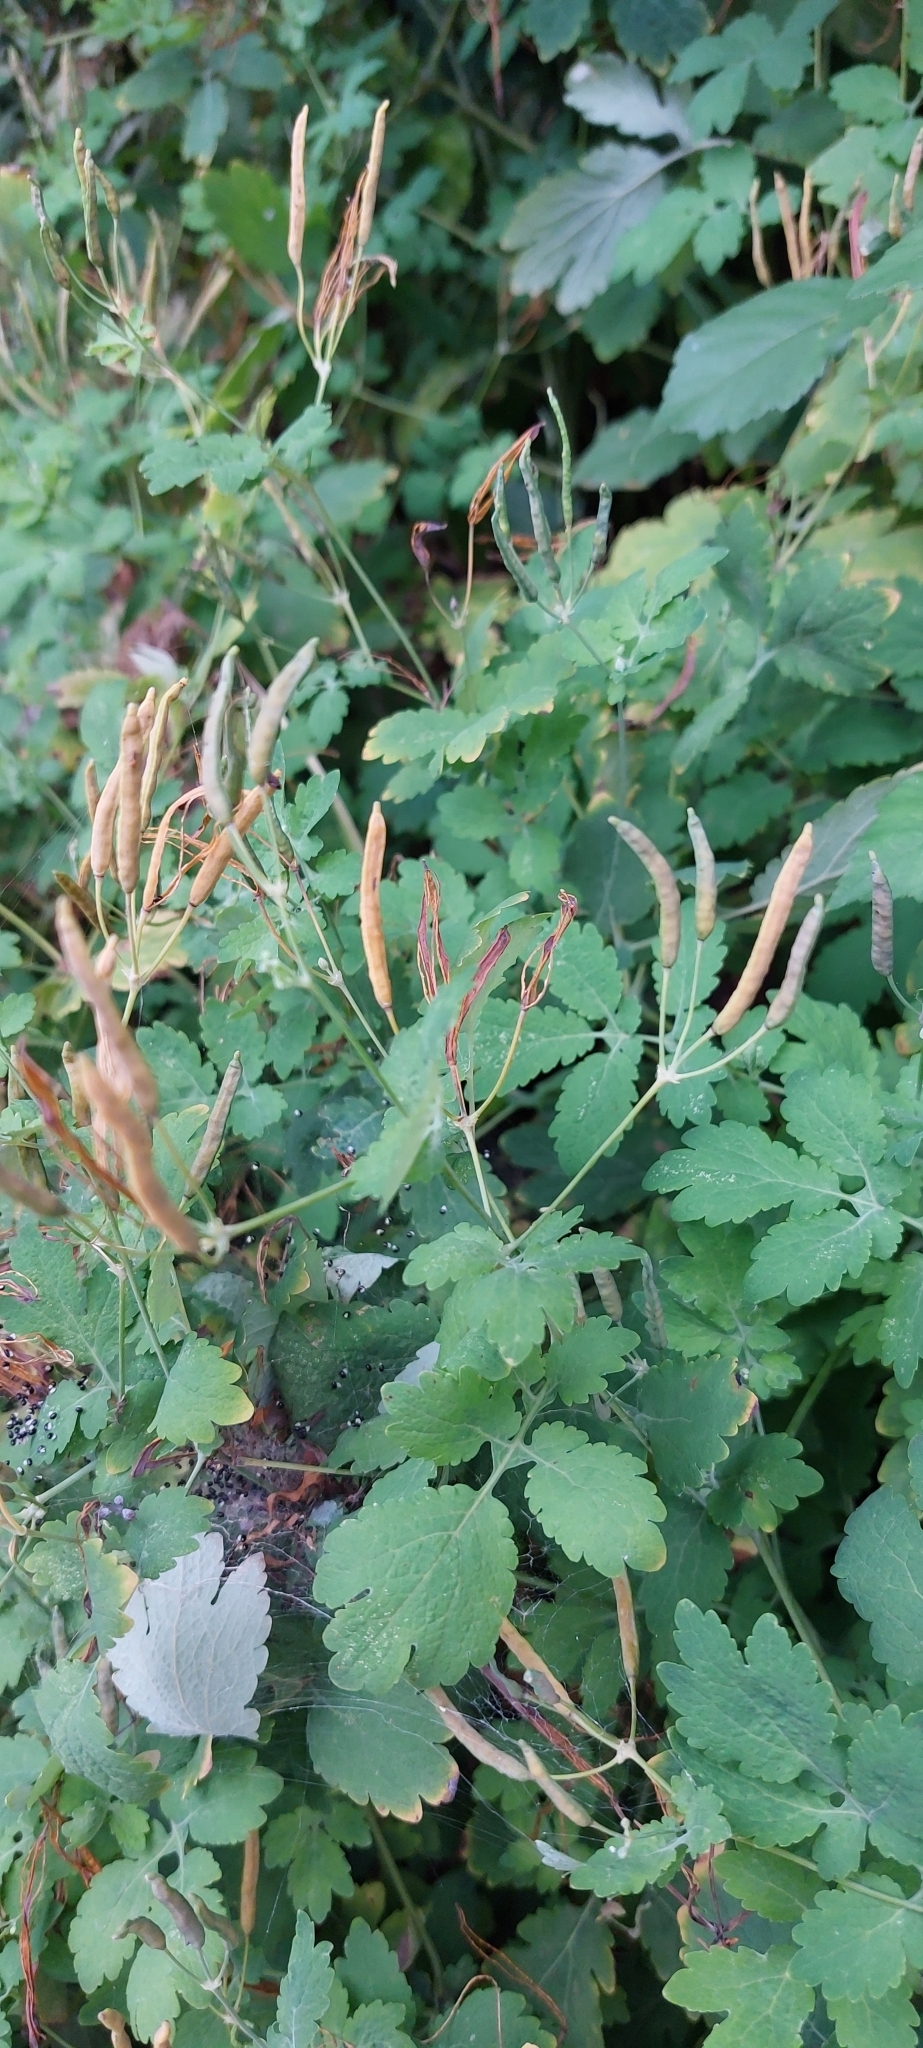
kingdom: Plantae
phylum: Tracheophyta
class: Magnoliopsida
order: Ranunculales
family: Papaveraceae
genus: Chelidonium
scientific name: Chelidonium majus
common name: Greater celandine
